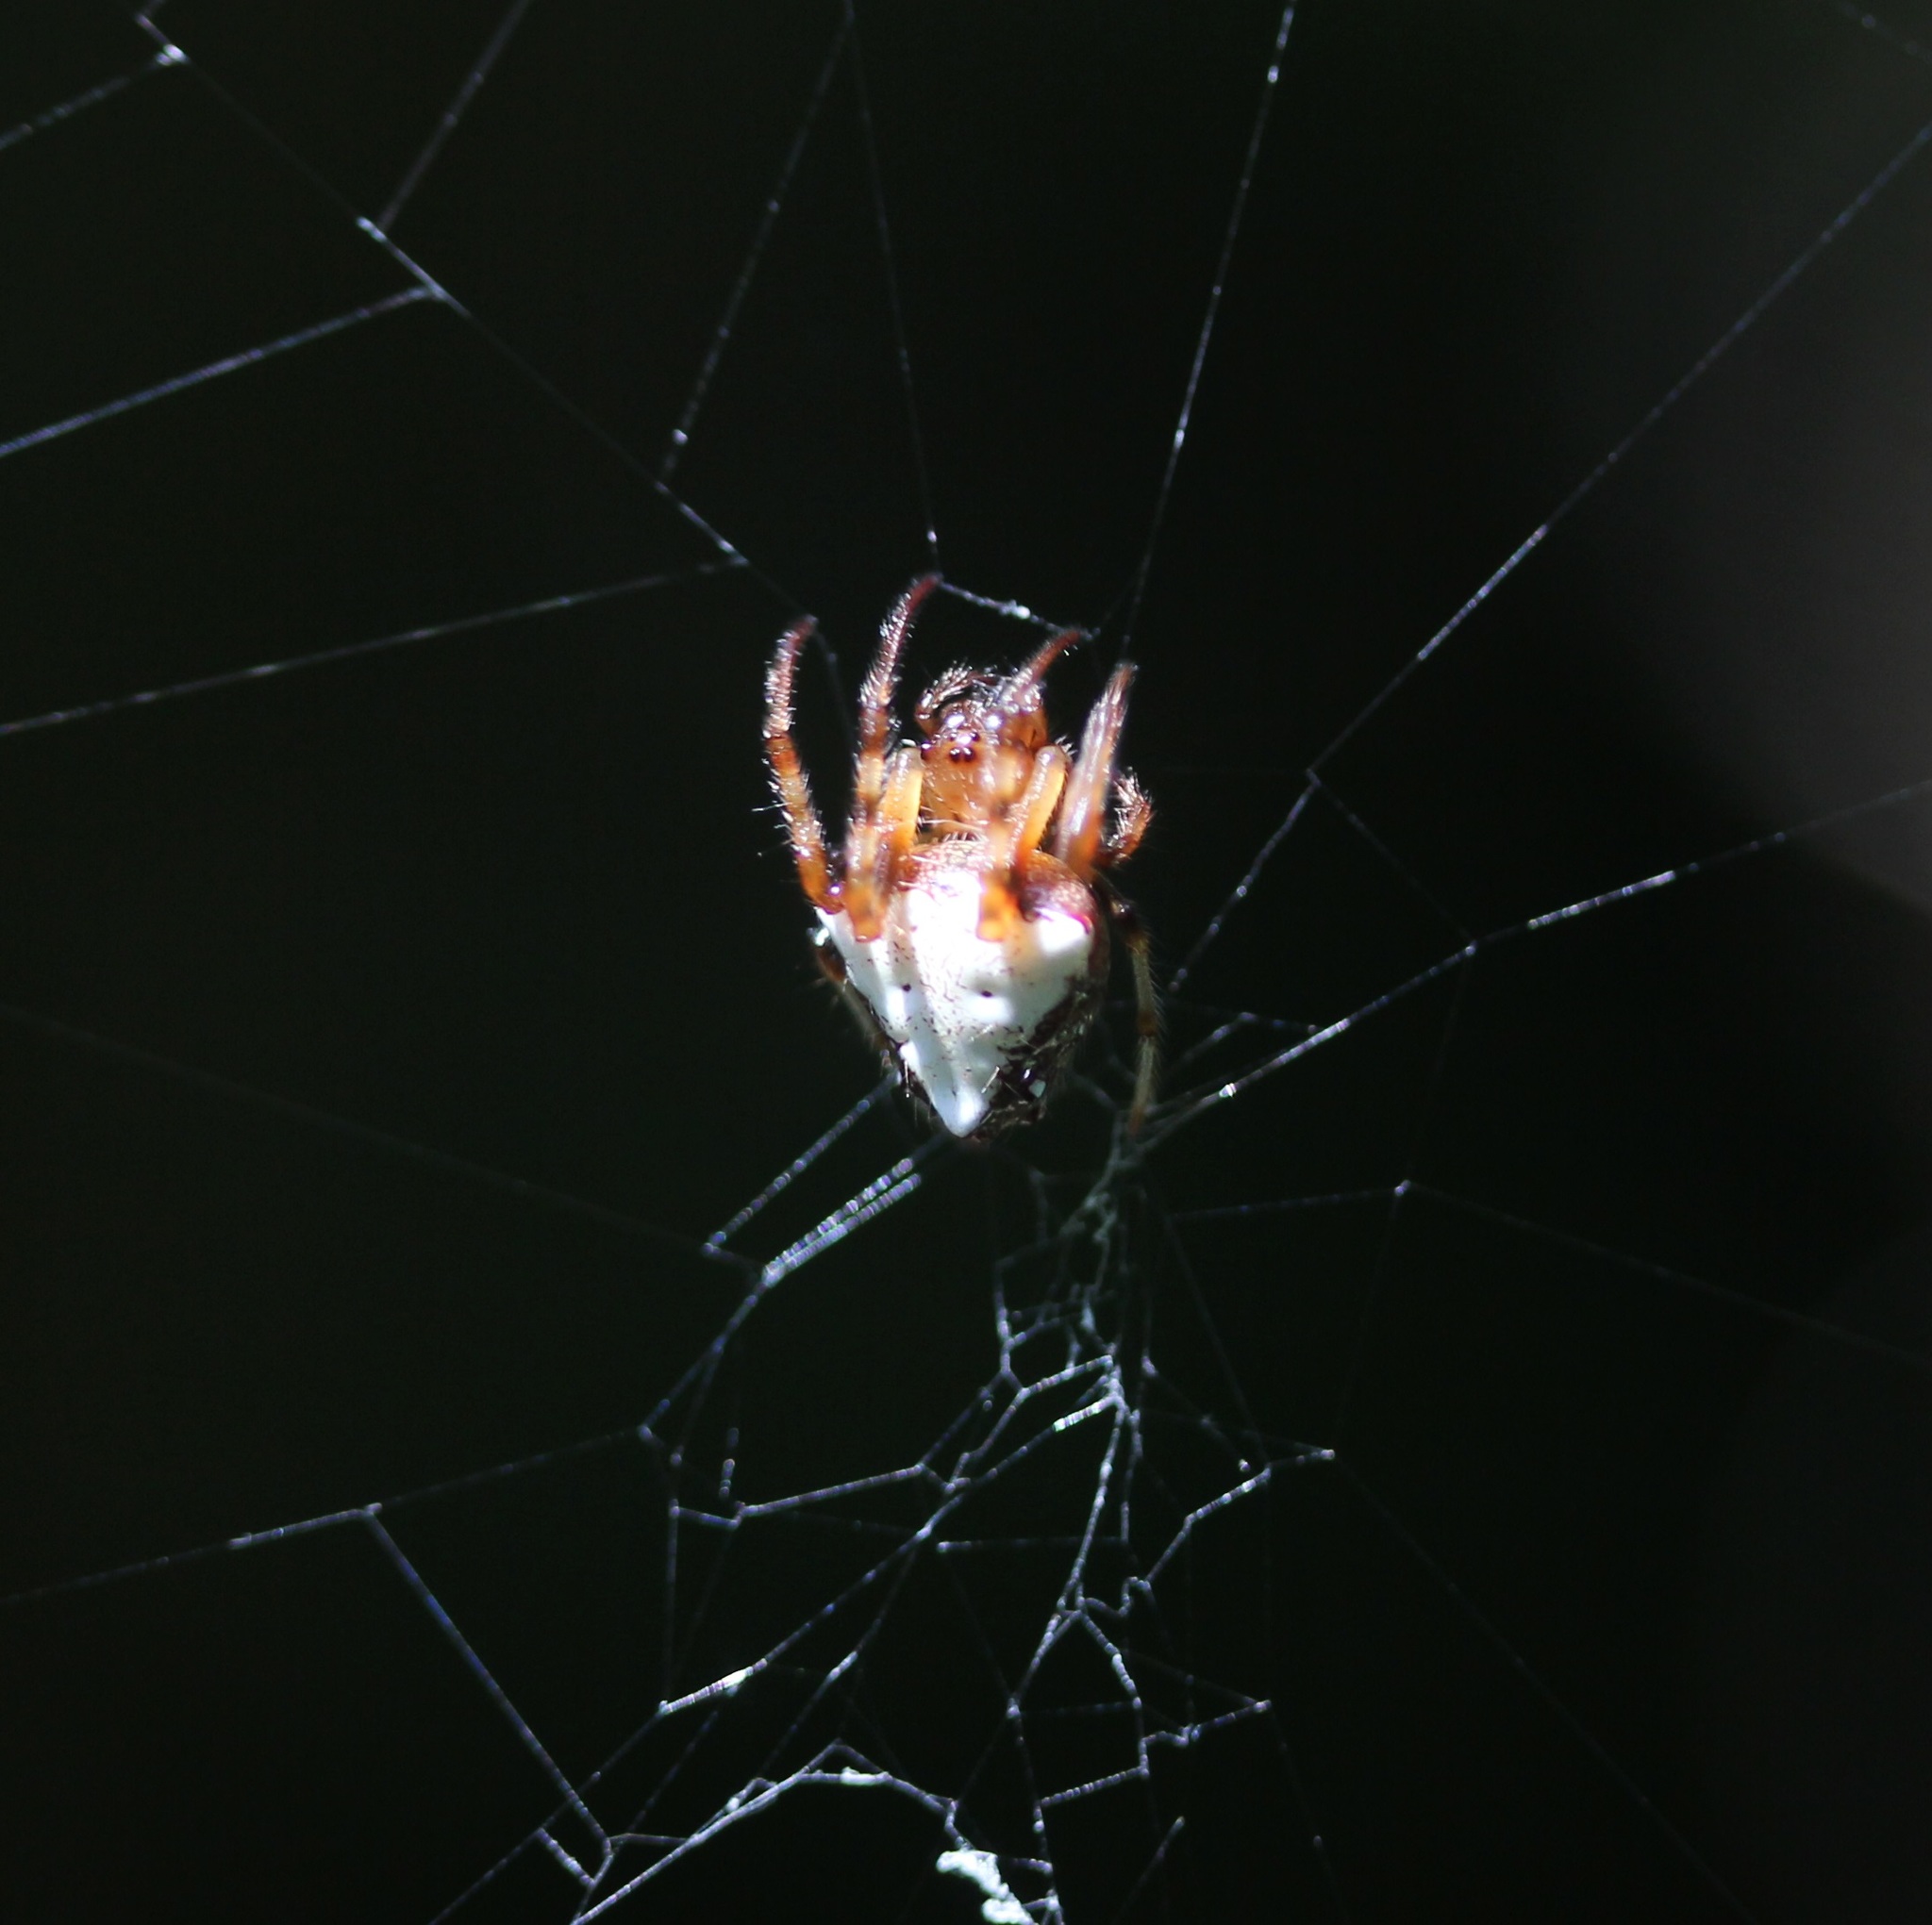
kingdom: Animalia
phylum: Arthropoda
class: Arachnida
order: Araneae
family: Araneidae
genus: Verrucosa
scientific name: Verrucosa arenata
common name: Orb weavers
